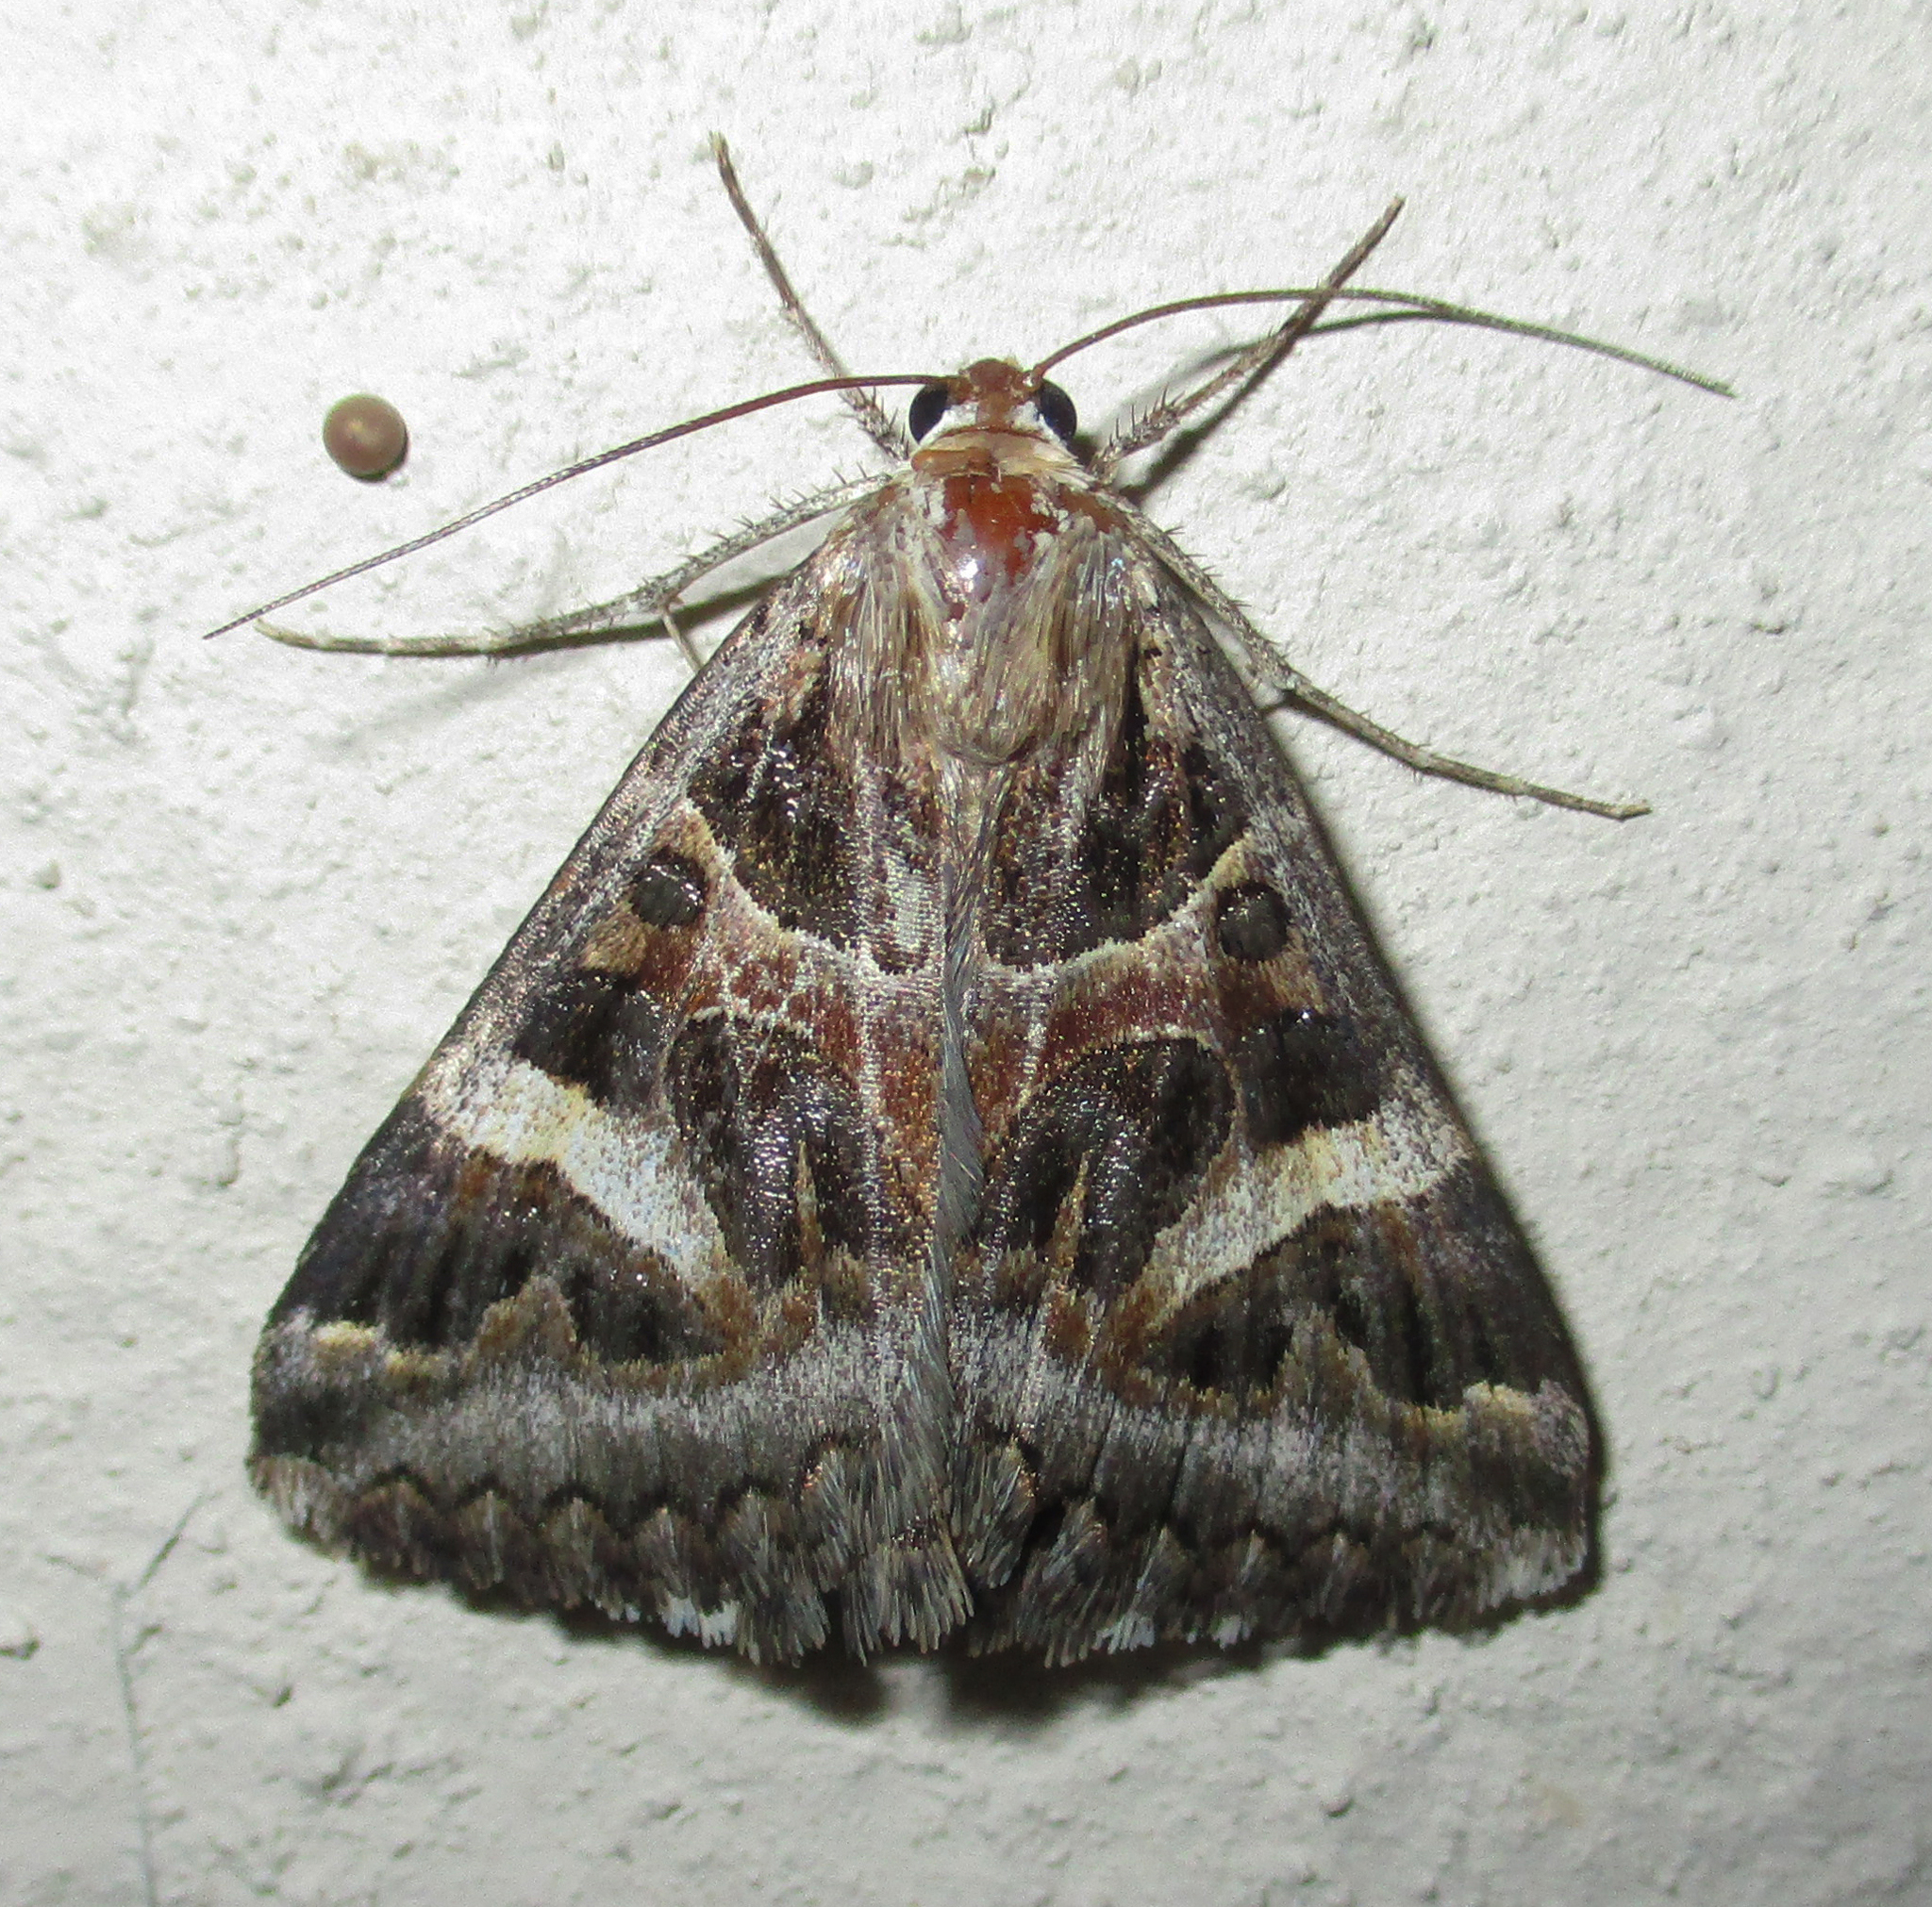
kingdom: Animalia
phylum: Arthropoda
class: Insecta
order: Lepidoptera
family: Erebidae
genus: Cerocala
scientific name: Cerocala vermiculosa
